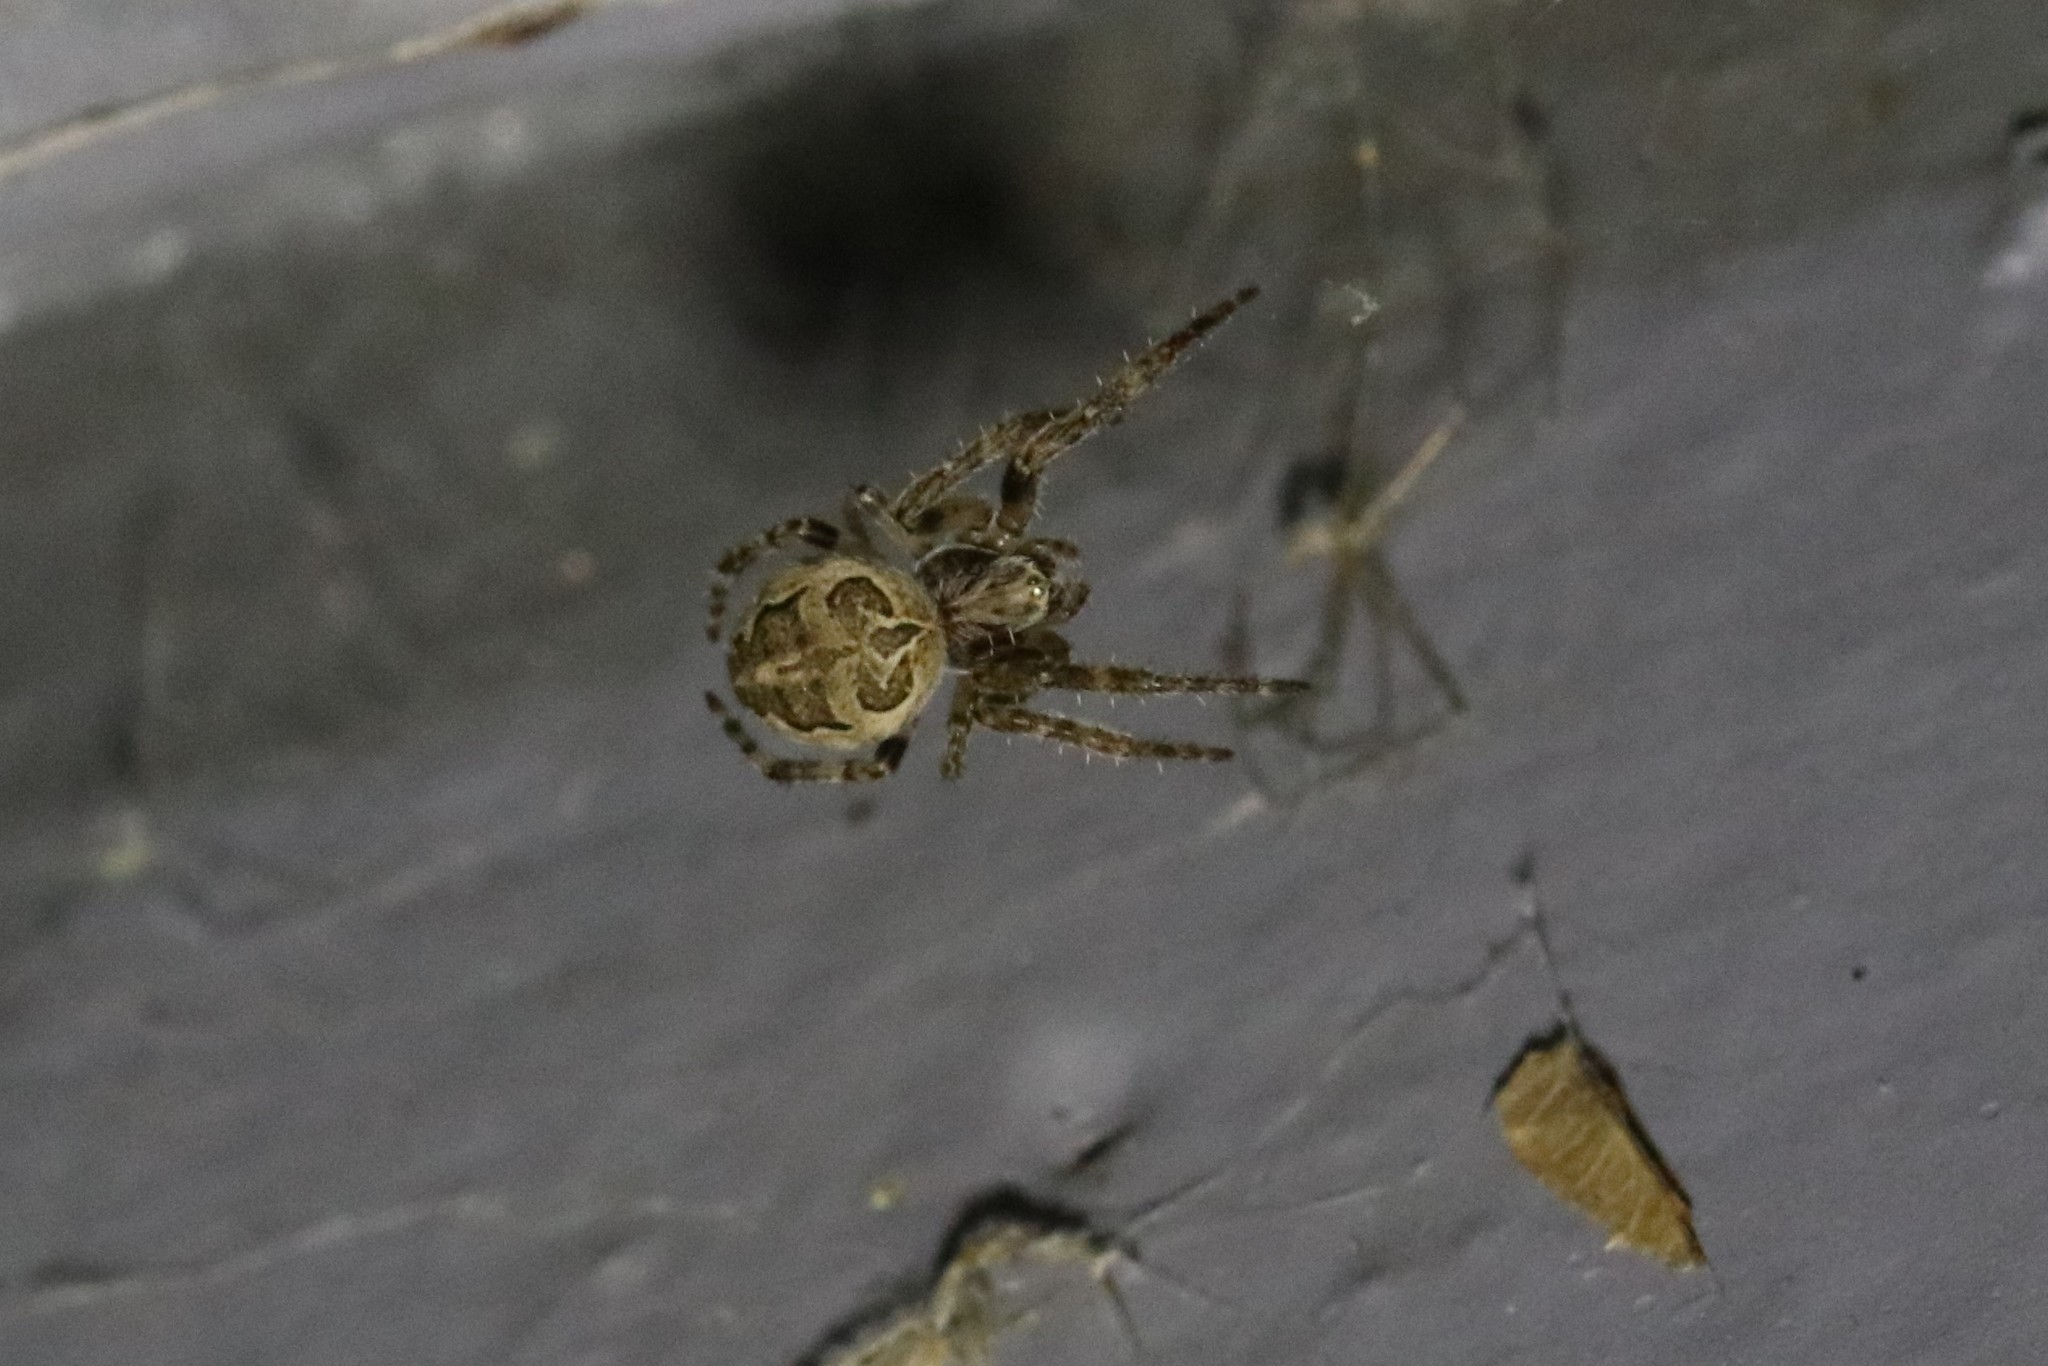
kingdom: Animalia
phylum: Arthropoda
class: Arachnida
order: Araneae
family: Araneidae
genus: Larinioides
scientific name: Larinioides sclopetarius
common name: Bridge orbweaver
